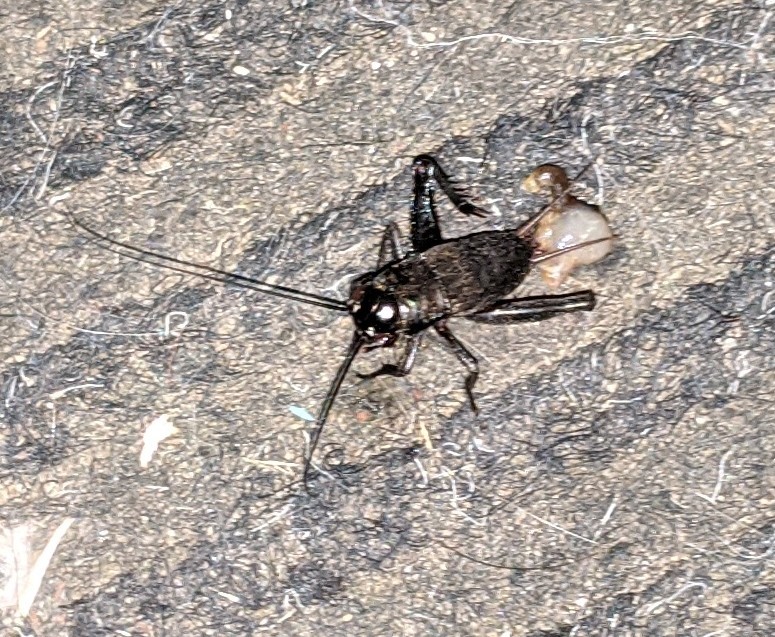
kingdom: Animalia
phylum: Arthropoda
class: Insecta
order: Orthoptera
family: Gryllidae
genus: Gryllus
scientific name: Gryllus pennsylvanicus
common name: Fall field cricket
